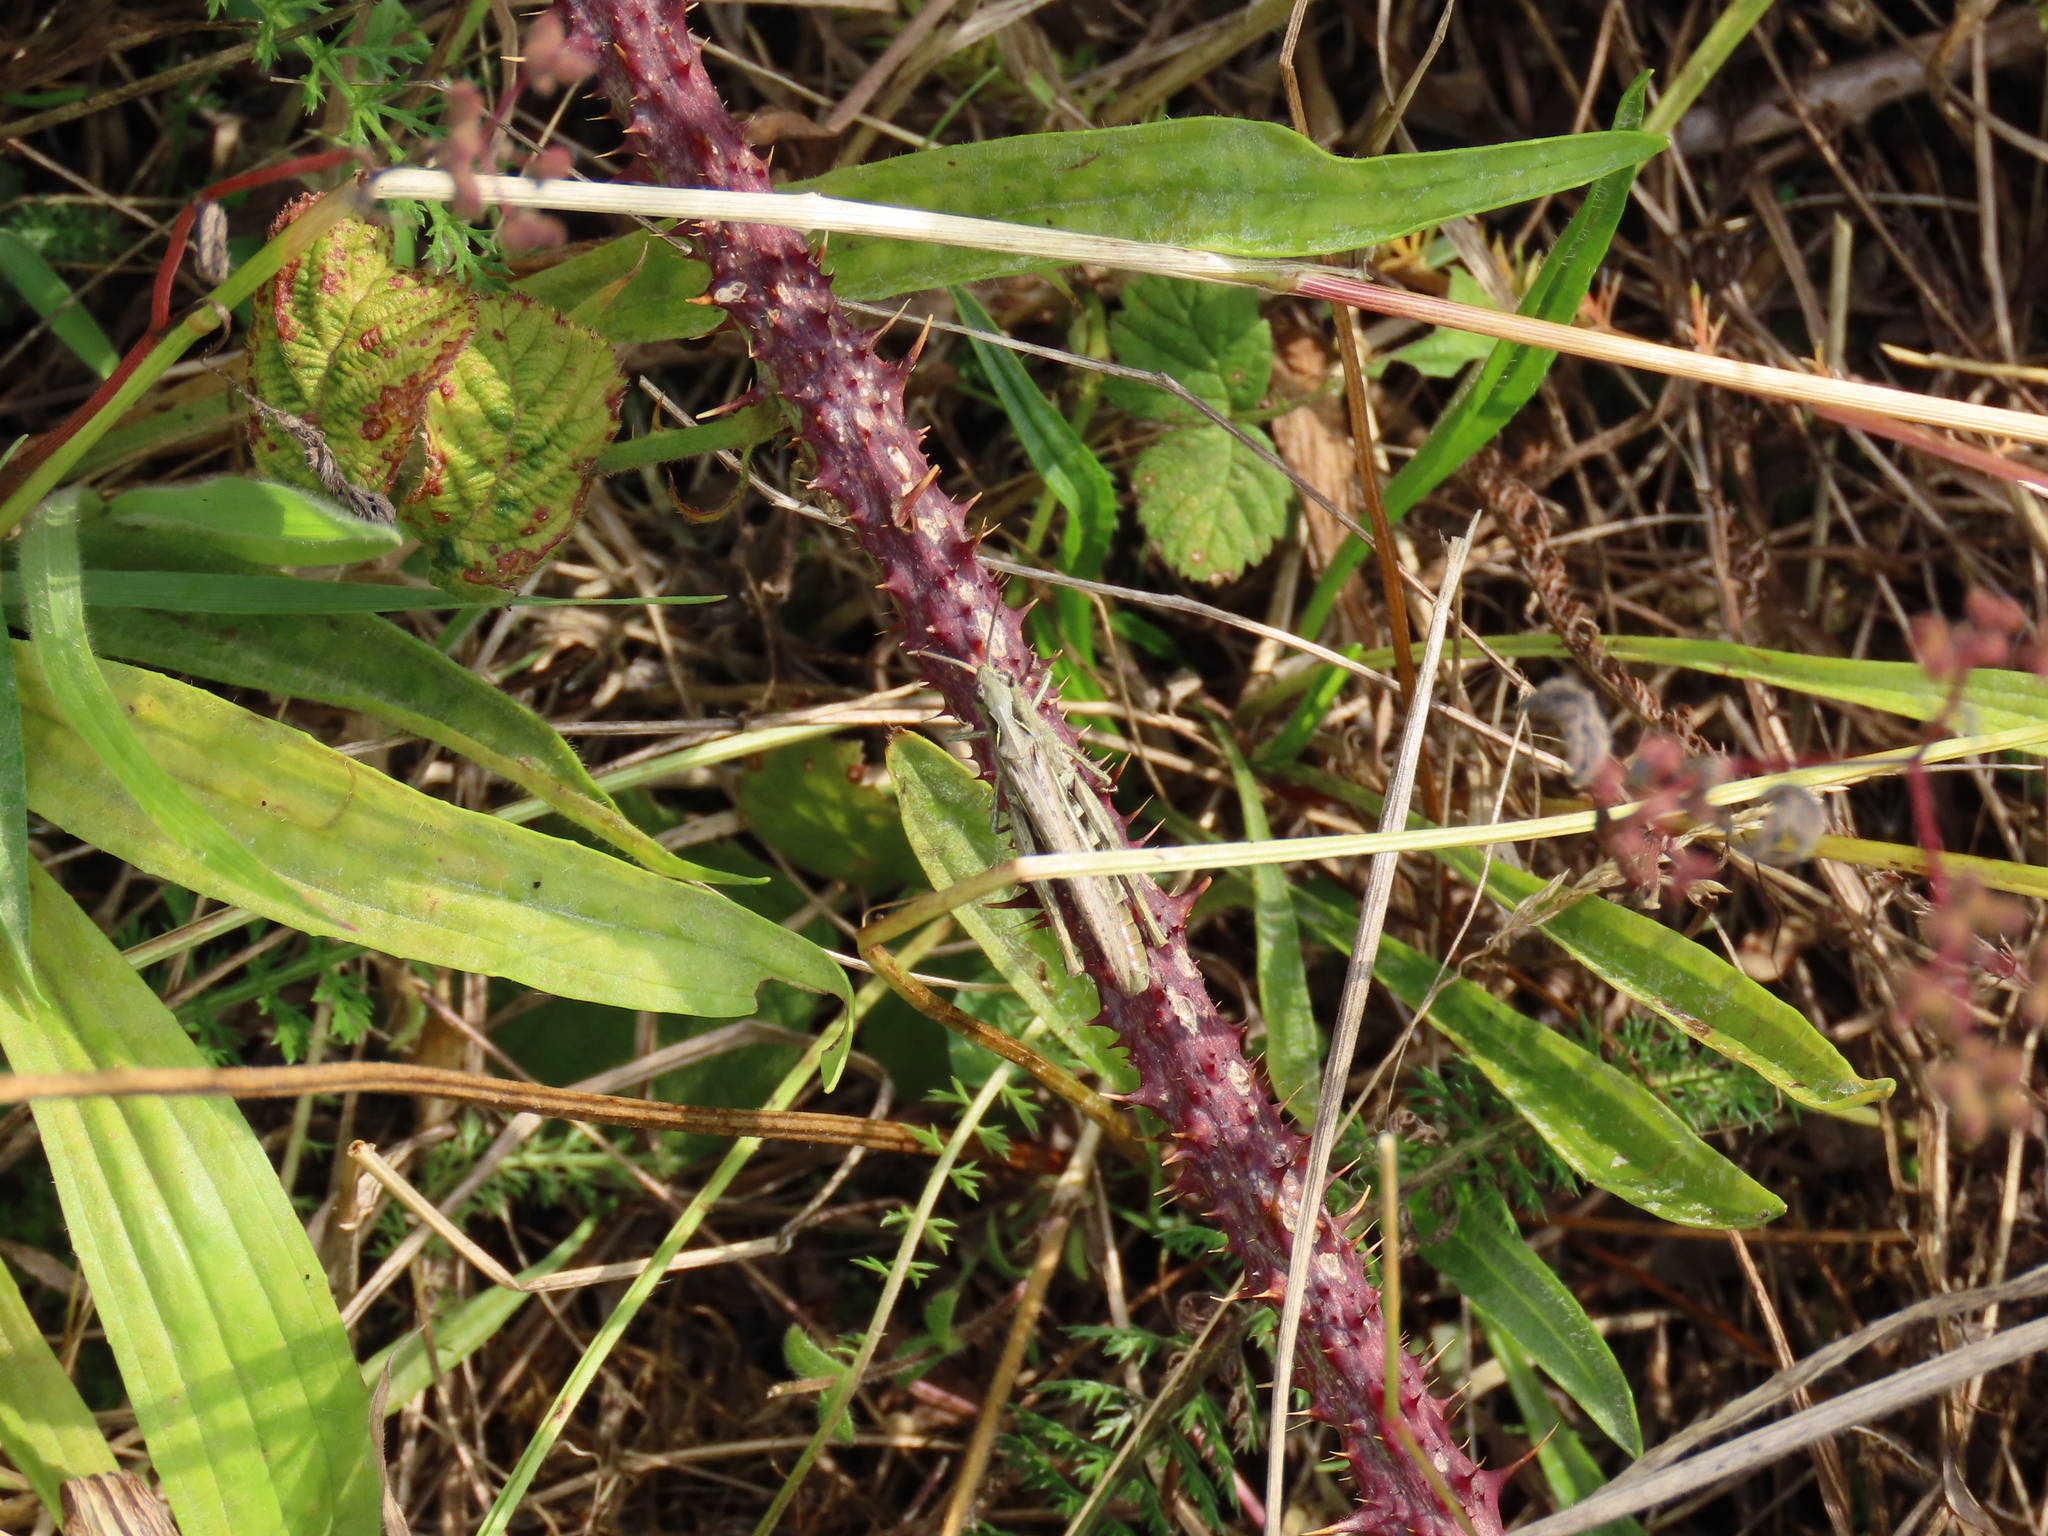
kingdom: Animalia
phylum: Arthropoda
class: Insecta
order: Orthoptera
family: Acrididae
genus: Chorthippus
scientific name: Chorthippus brunneus
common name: Field grasshopper
